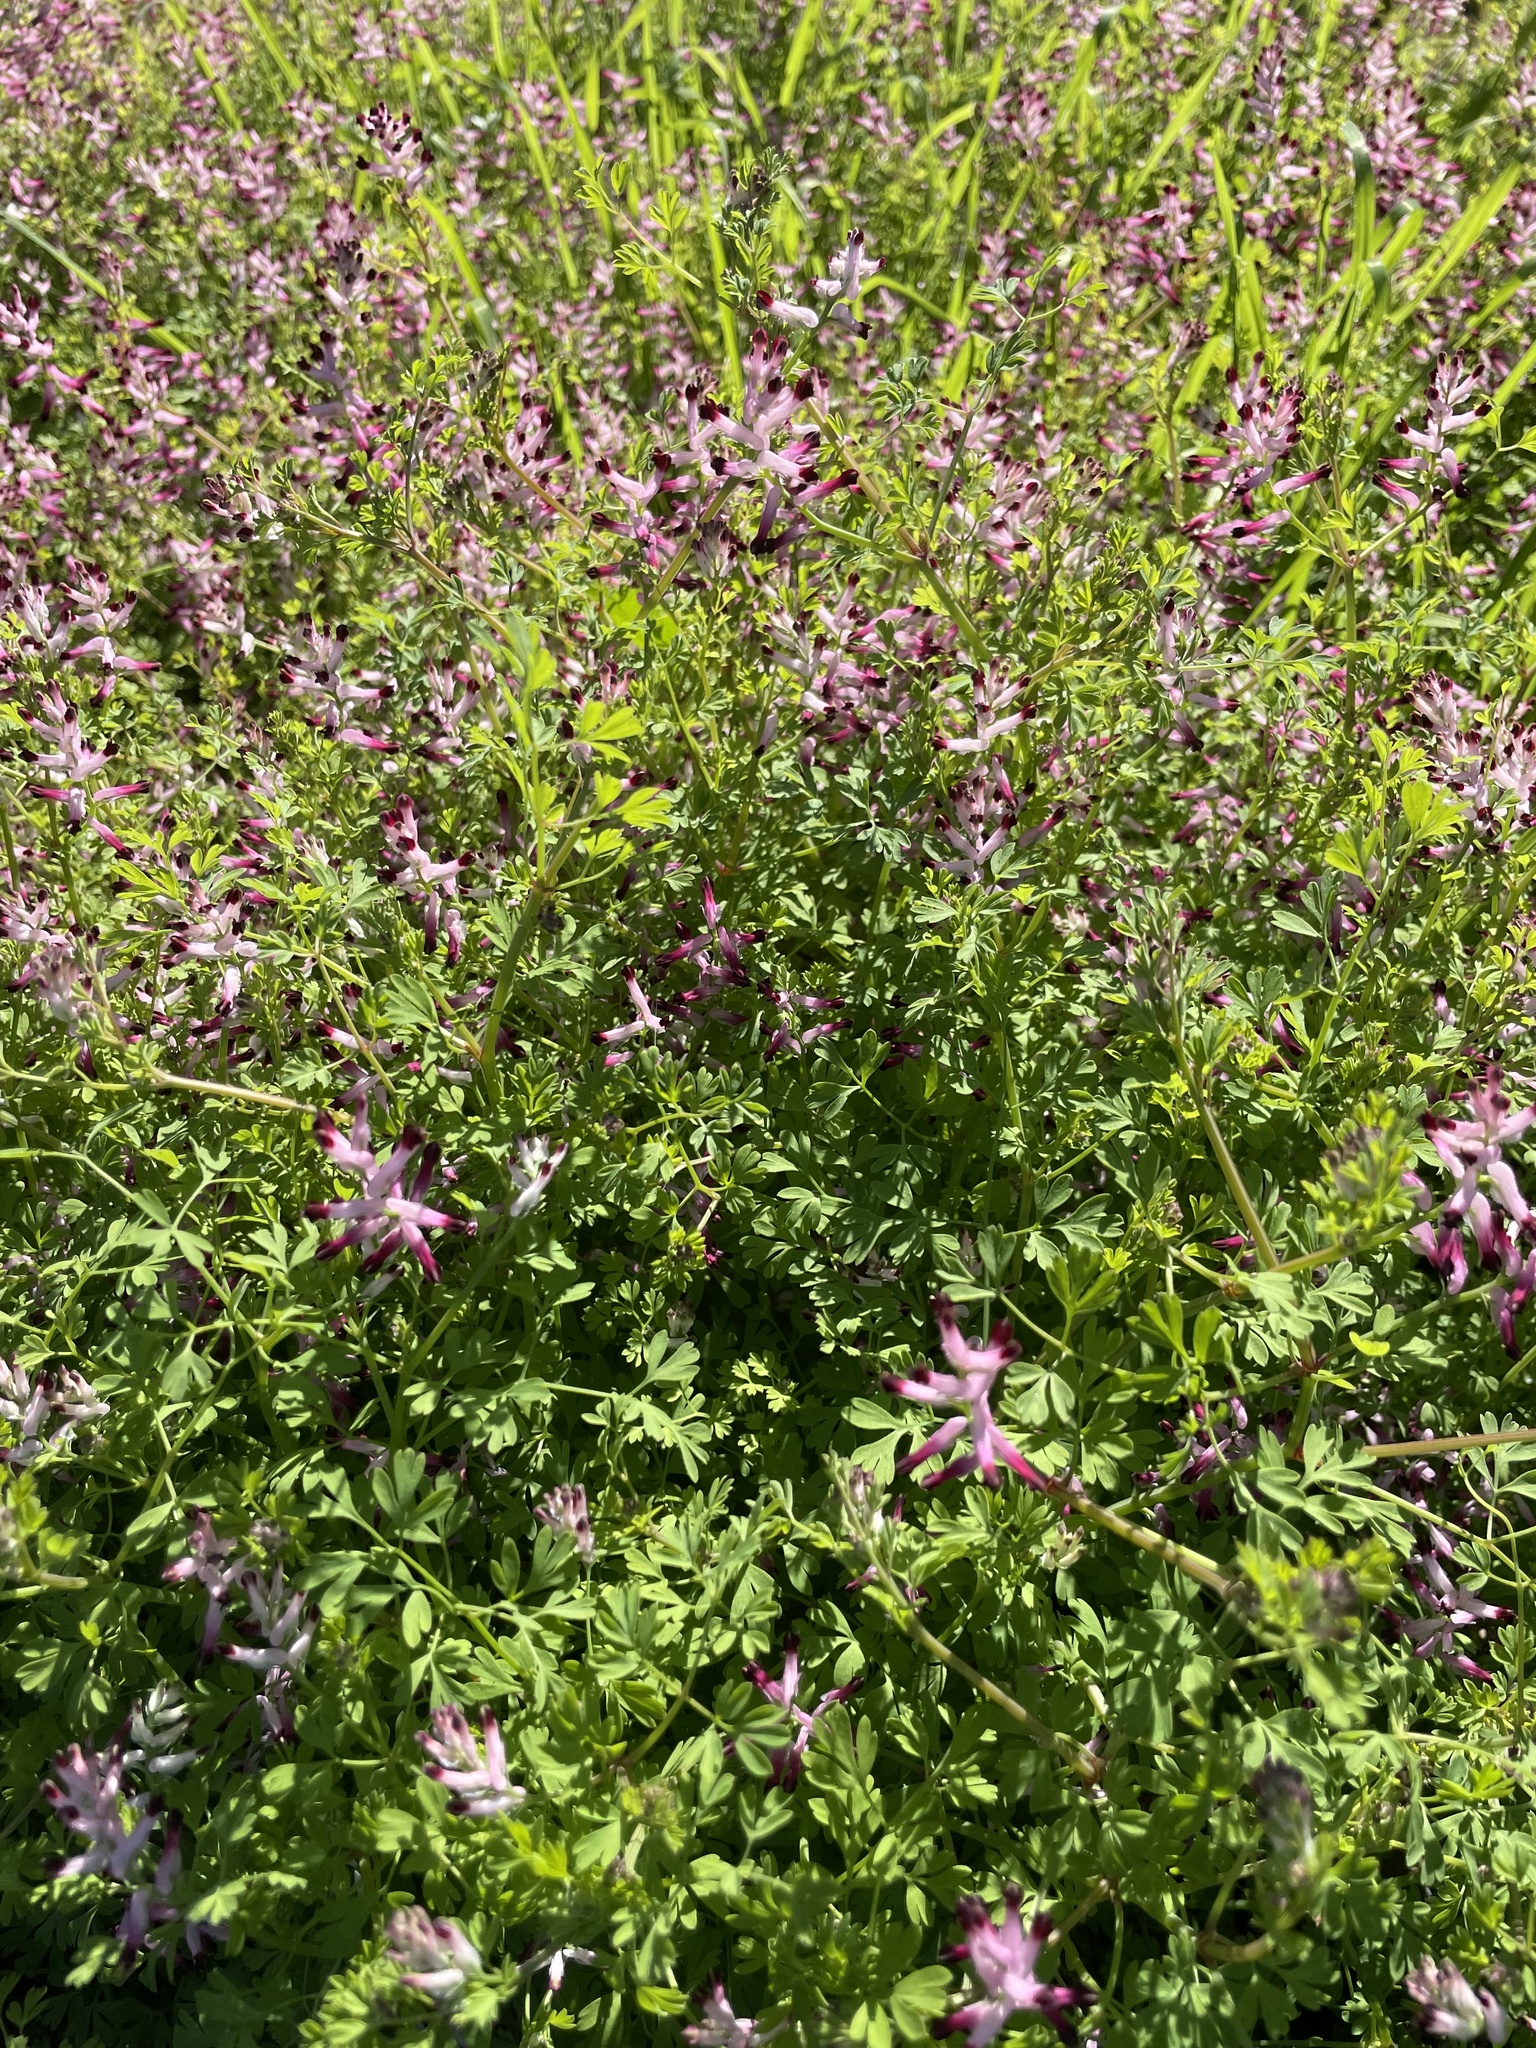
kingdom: Plantae
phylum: Tracheophyta
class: Magnoliopsida
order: Ranunculales
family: Papaveraceae
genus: Fumaria
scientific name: Fumaria muralis
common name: Common ramping-fumitory
